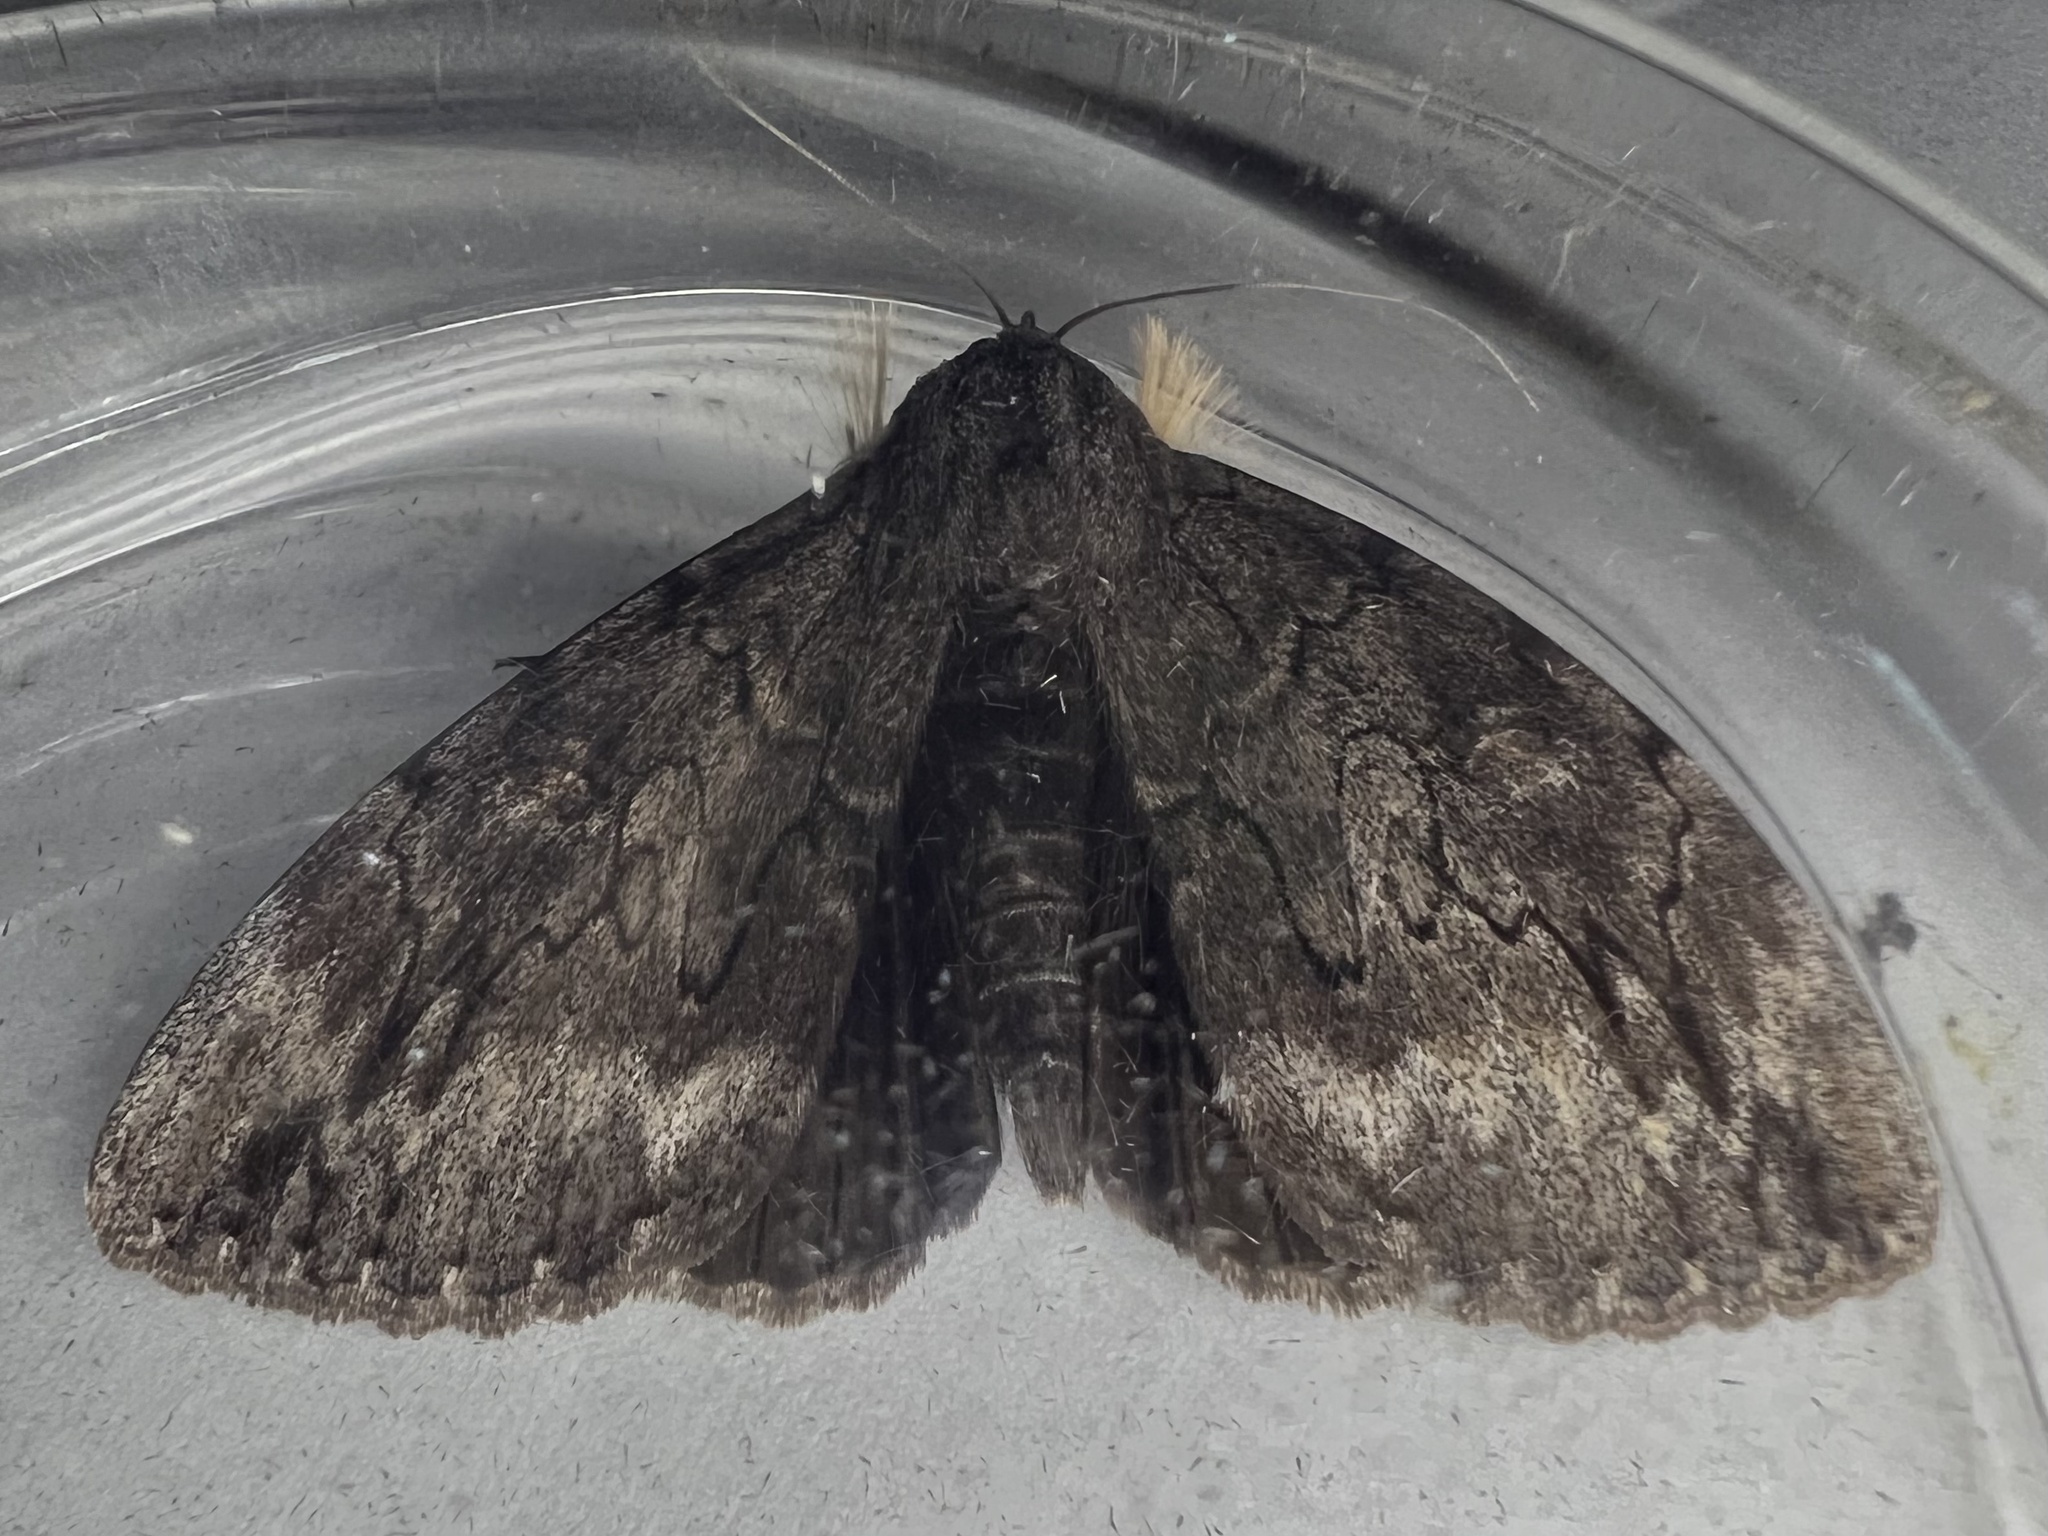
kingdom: Animalia
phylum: Arthropoda
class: Insecta
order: Lepidoptera
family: Erebidae
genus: Catocala
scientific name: Catocala residua
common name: Residua underwing
